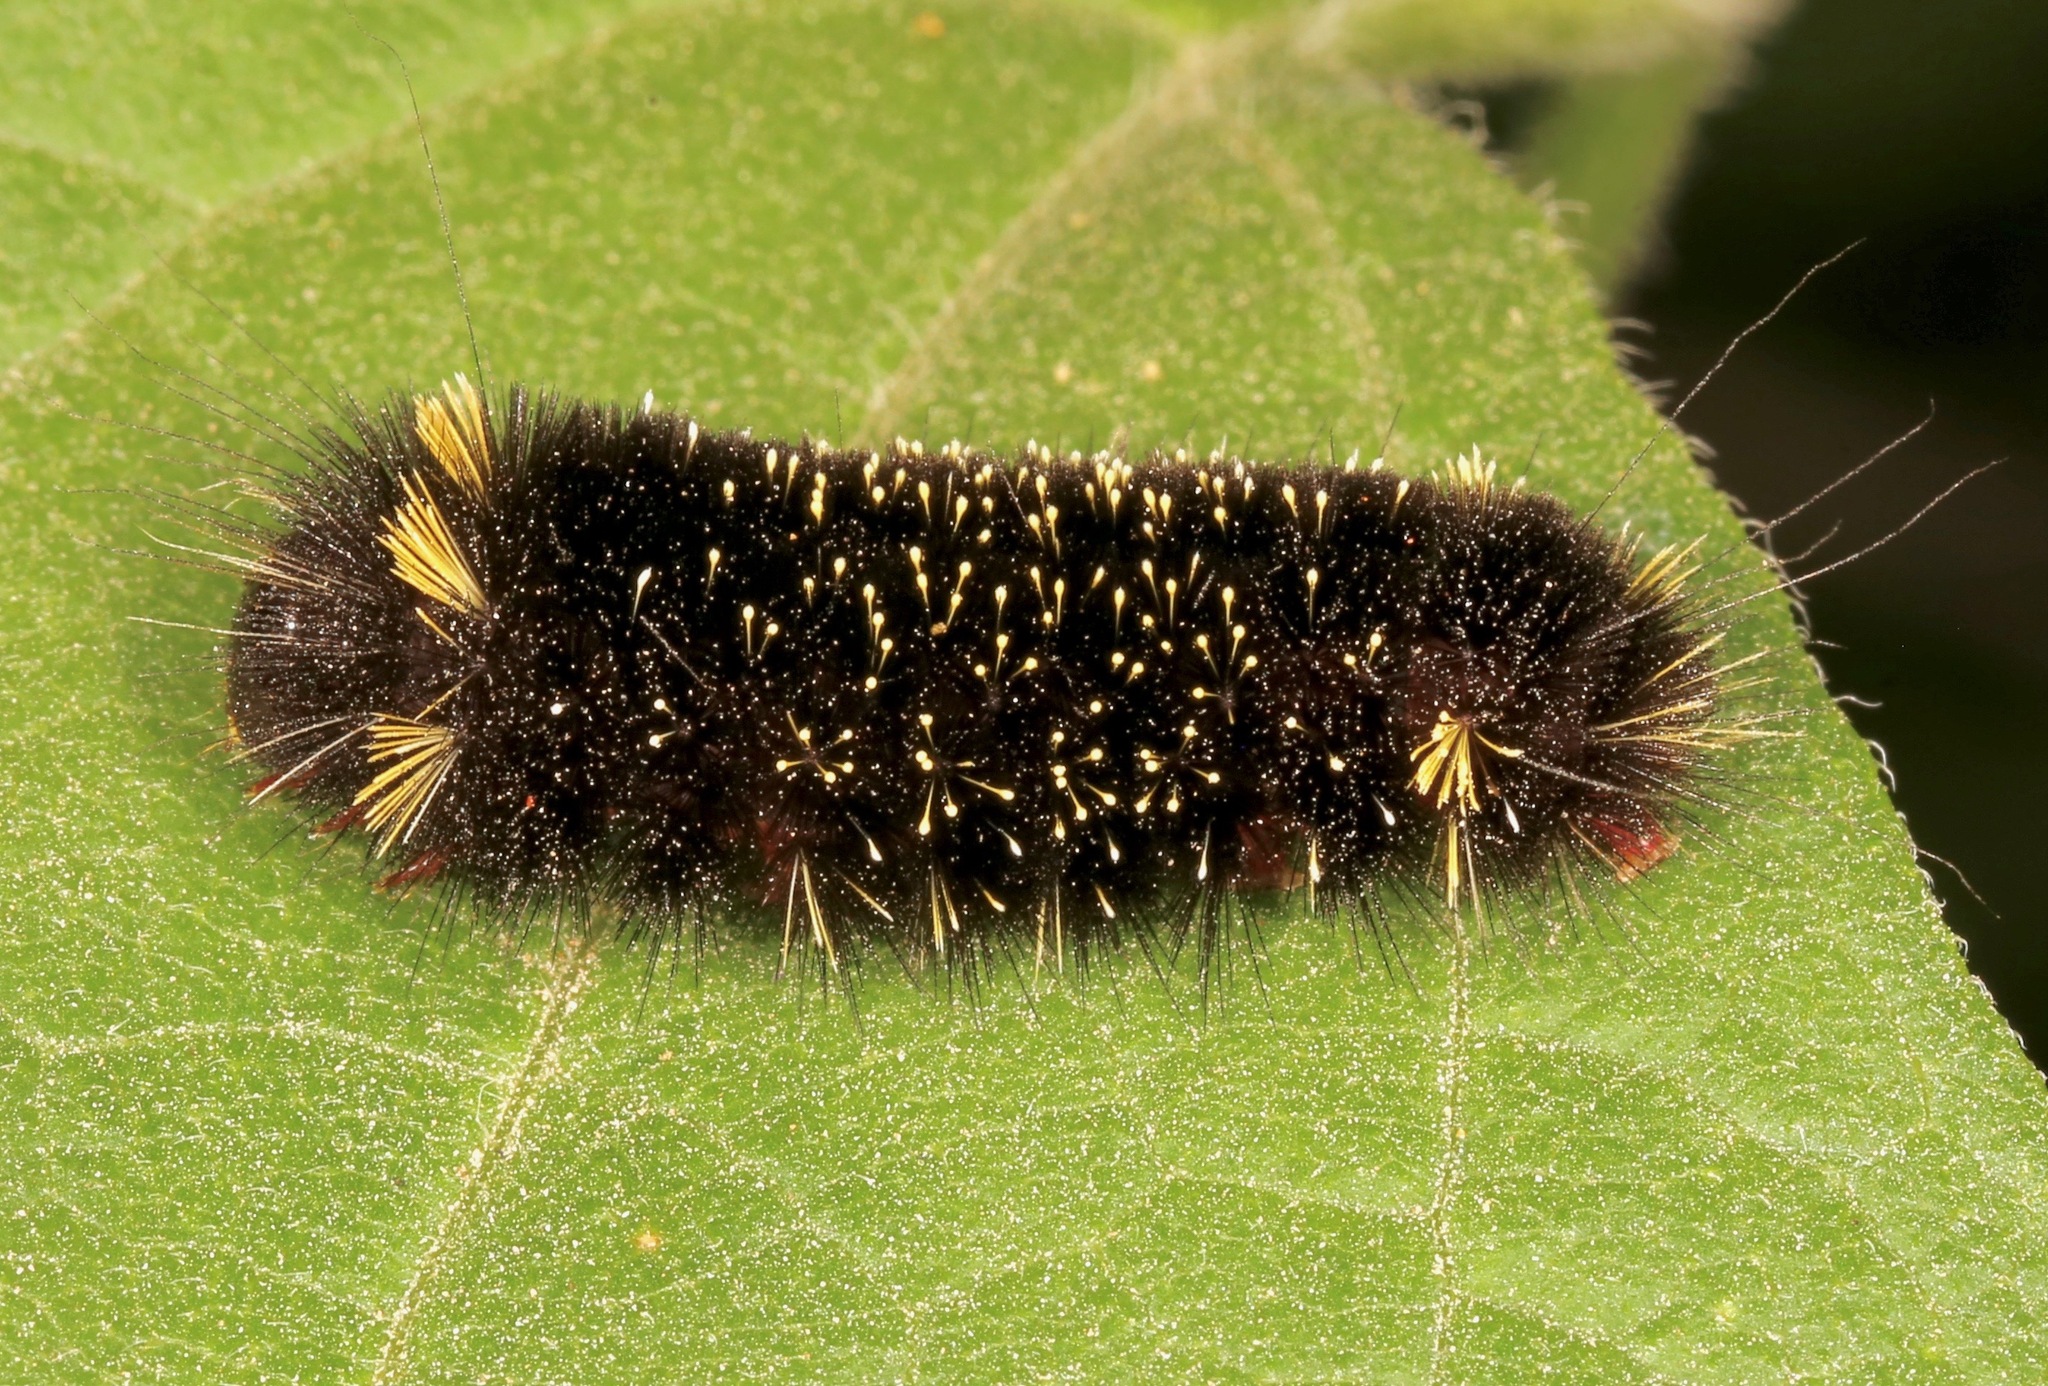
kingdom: Animalia
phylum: Arthropoda
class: Insecta
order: Lepidoptera
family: Erebidae
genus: Hypocrisias
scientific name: Hypocrisias minima
